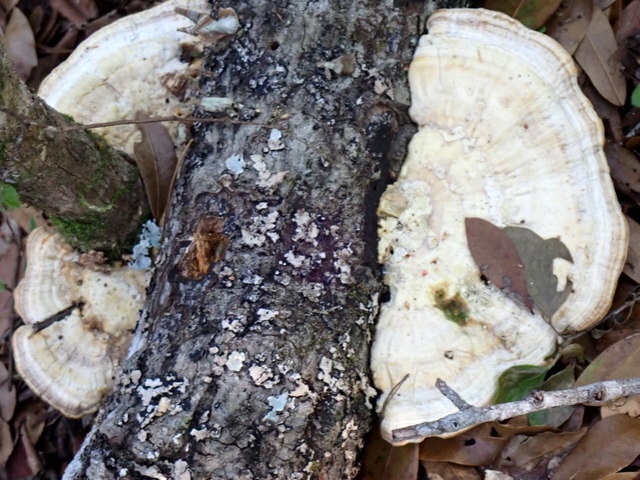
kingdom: Fungi
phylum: Basidiomycota
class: Agaricomycetes
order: Polyporales
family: Polyporaceae
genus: Trametes
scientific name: Trametes lactinea
